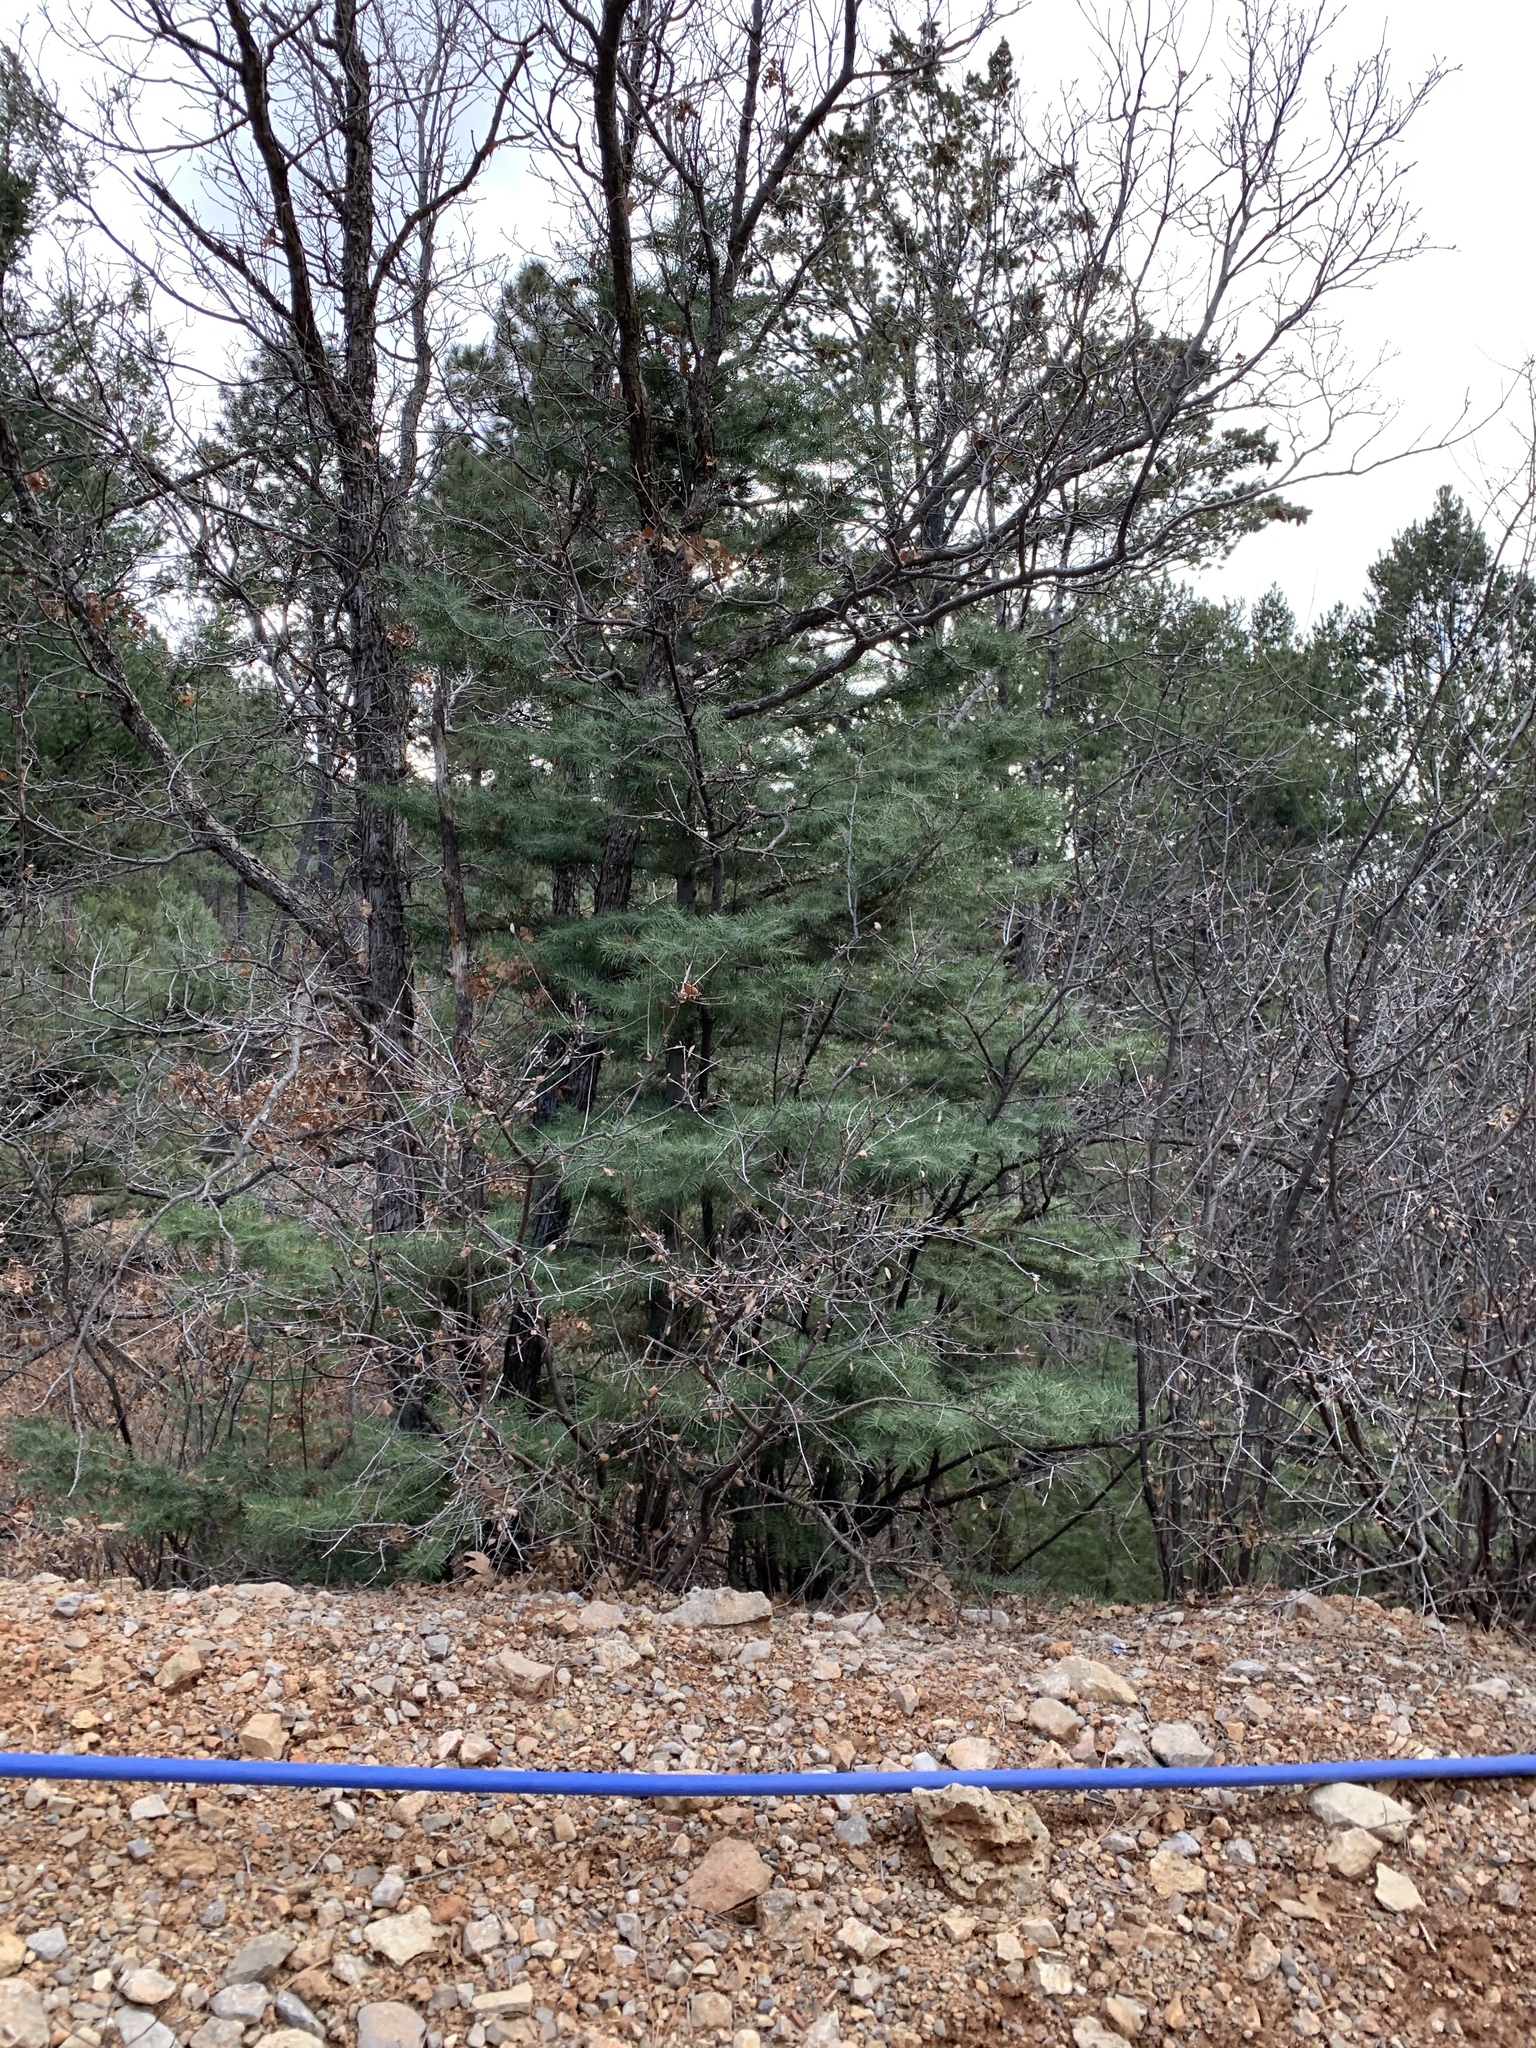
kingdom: Plantae
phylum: Tracheophyta
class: Pinopsida
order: Pinales
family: Pinaceae
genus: Abies
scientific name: Abies concolor
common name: Colorado fir
